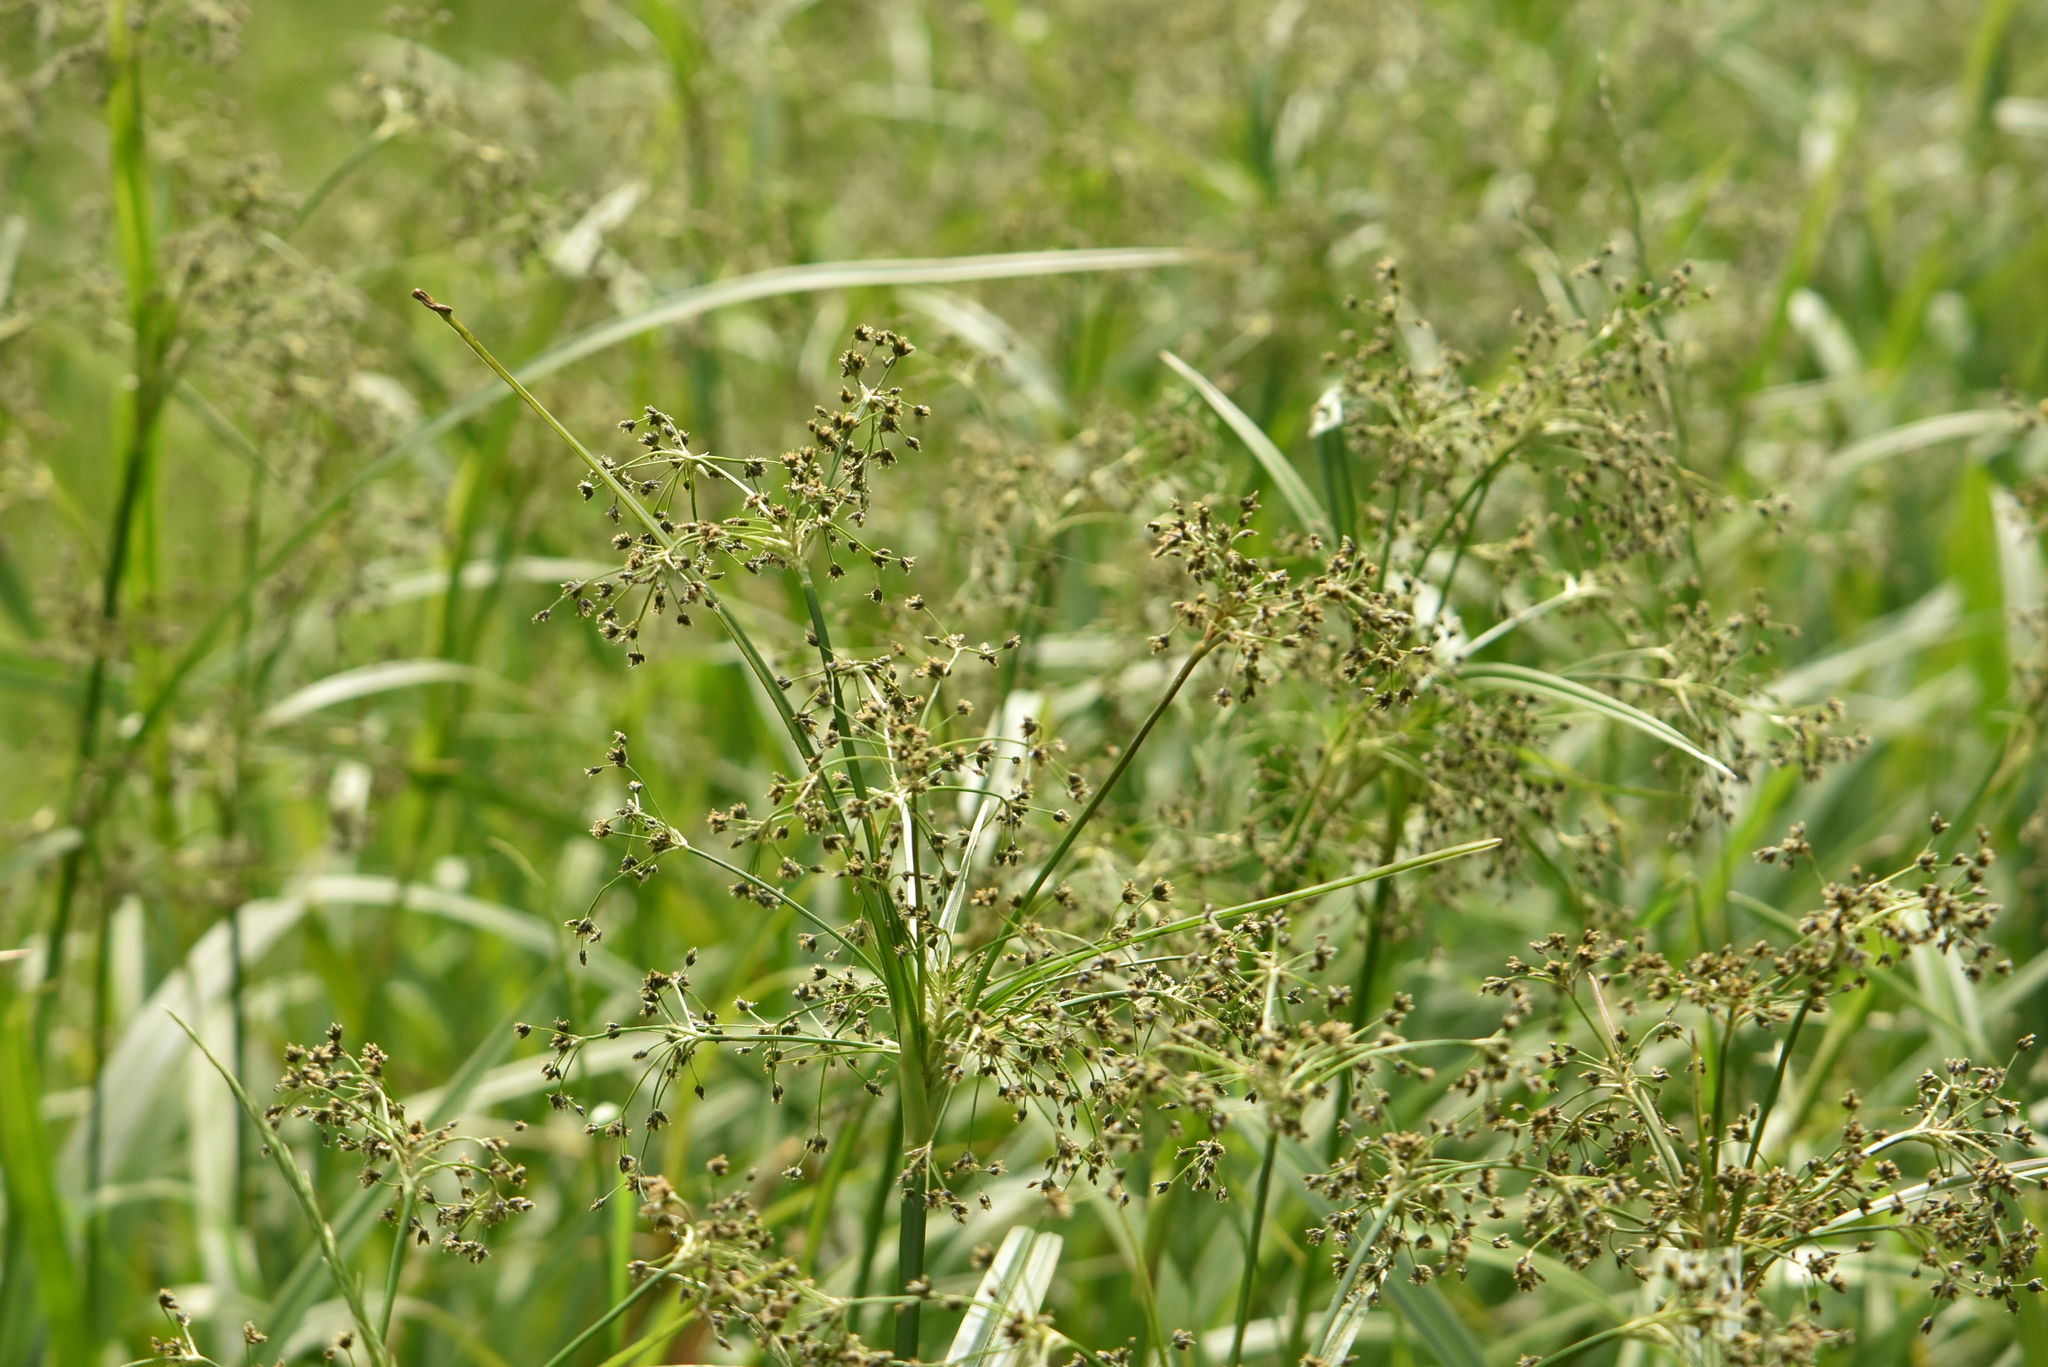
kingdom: Plantae
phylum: Tracheophyta
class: Liliopsida
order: Poales
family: Cyperaceae
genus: Scirpus
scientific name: Scirpus sylvaticus
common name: Wood club-rush
